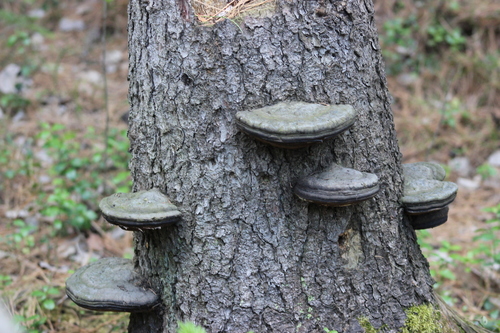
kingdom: Fungi
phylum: Basidiomycota
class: Agaricomycetes
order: Polyporales
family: Fomitopsidaceae
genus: Fomitopsis
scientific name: Fomitopsis pinicola
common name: Red-belted bracket
